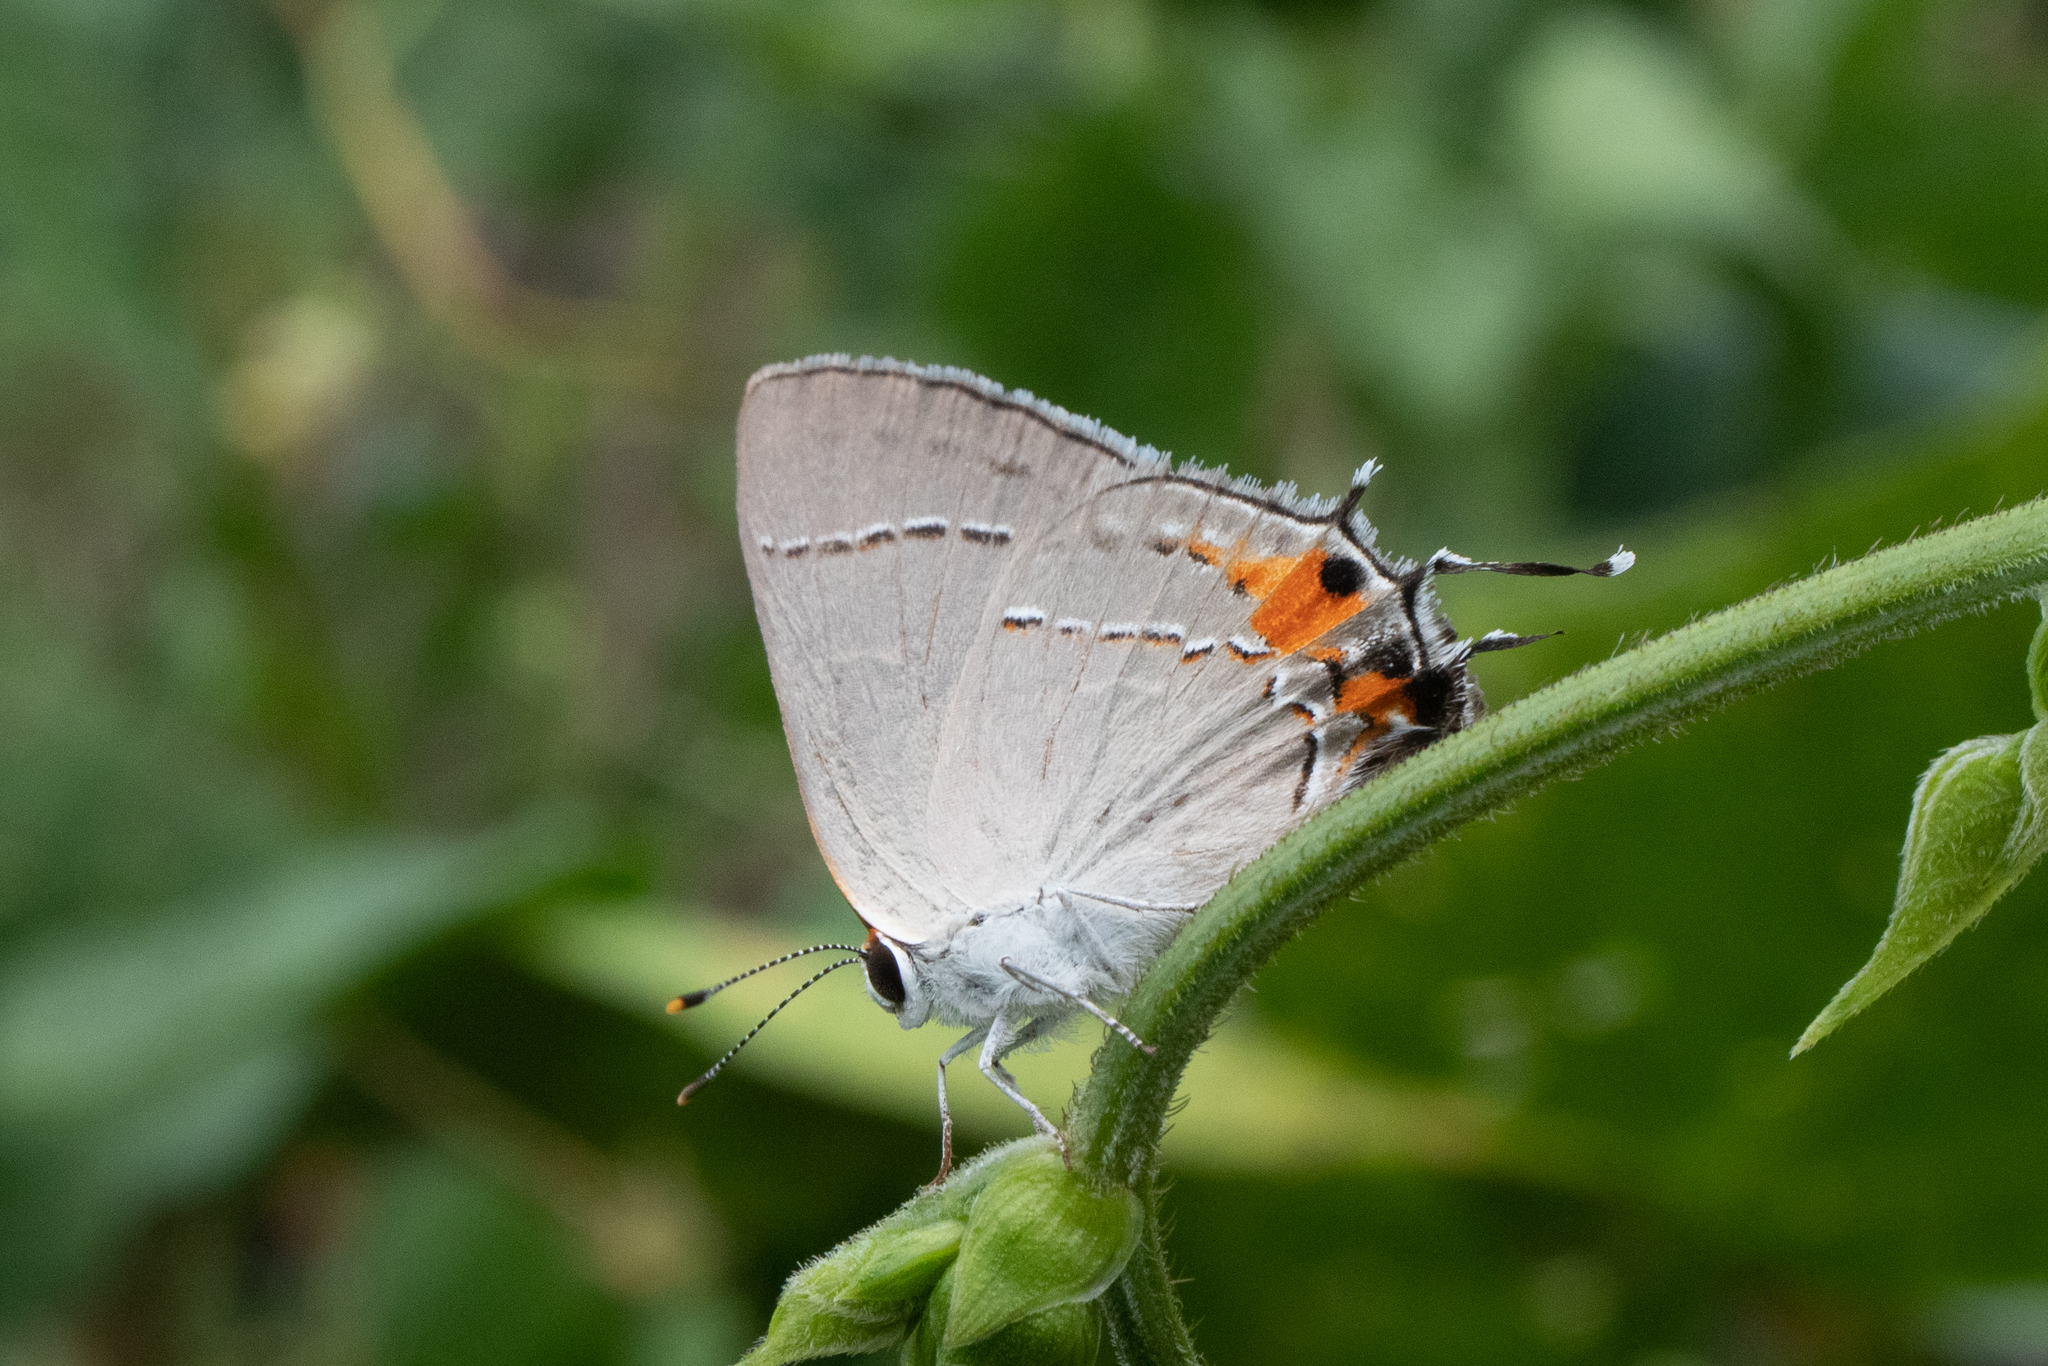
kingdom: Animalia
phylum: Arthropoda
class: Insecta
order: Lepidoptera
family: Lycaenidae
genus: Strymon
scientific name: Strymon melinus
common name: Gray hairstreak
